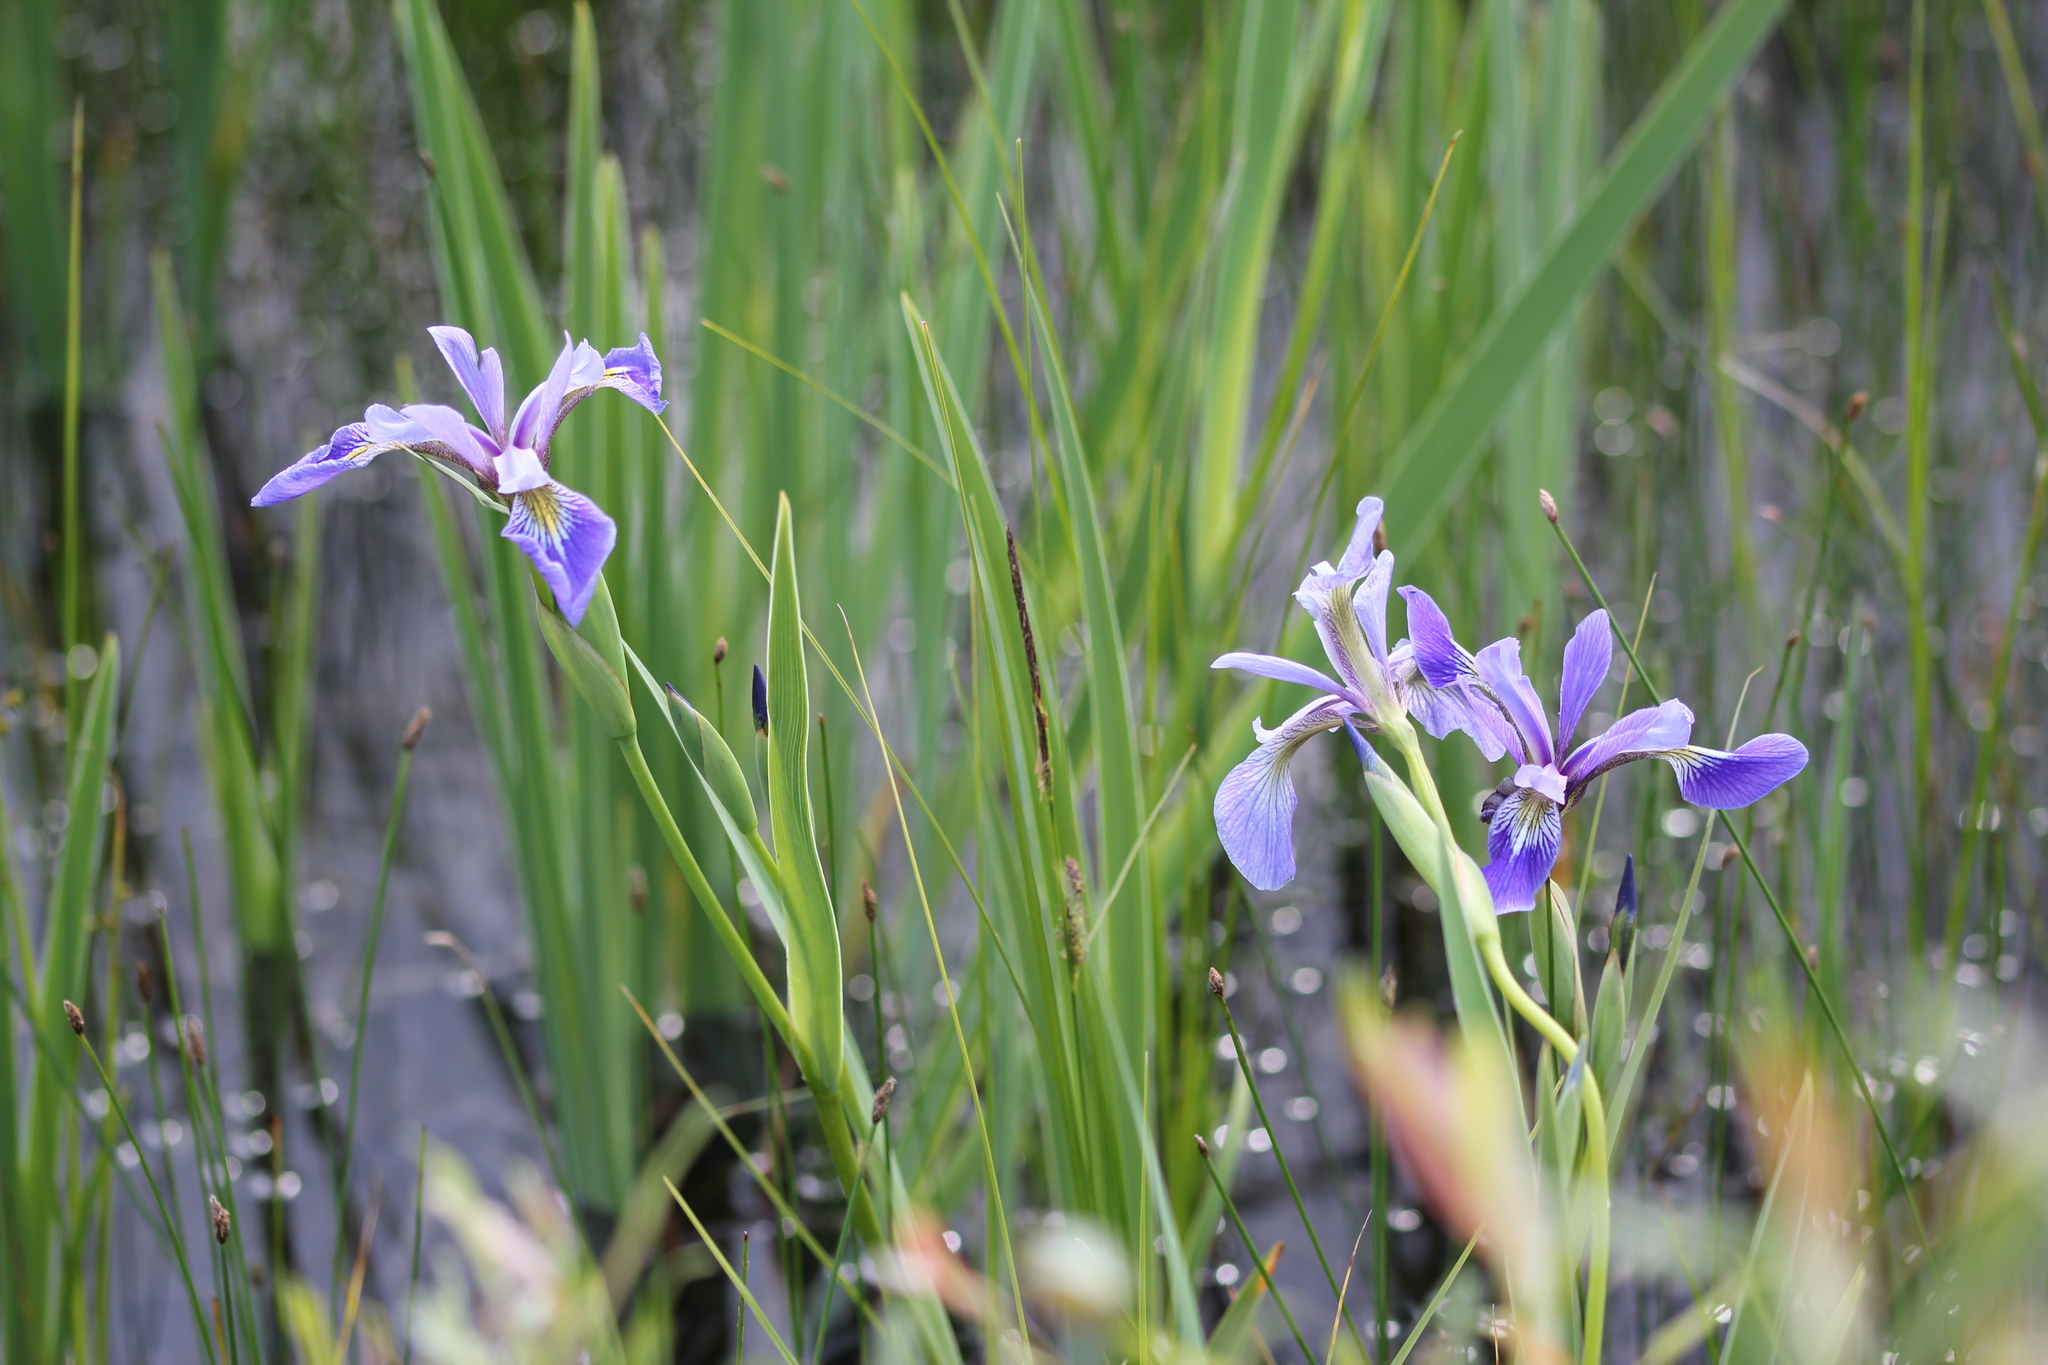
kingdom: Plantae
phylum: Tracheophyta
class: Liliopsida
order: Asparagales
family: Iridaceae
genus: Iris
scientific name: Iris versicolor
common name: Purple iris
